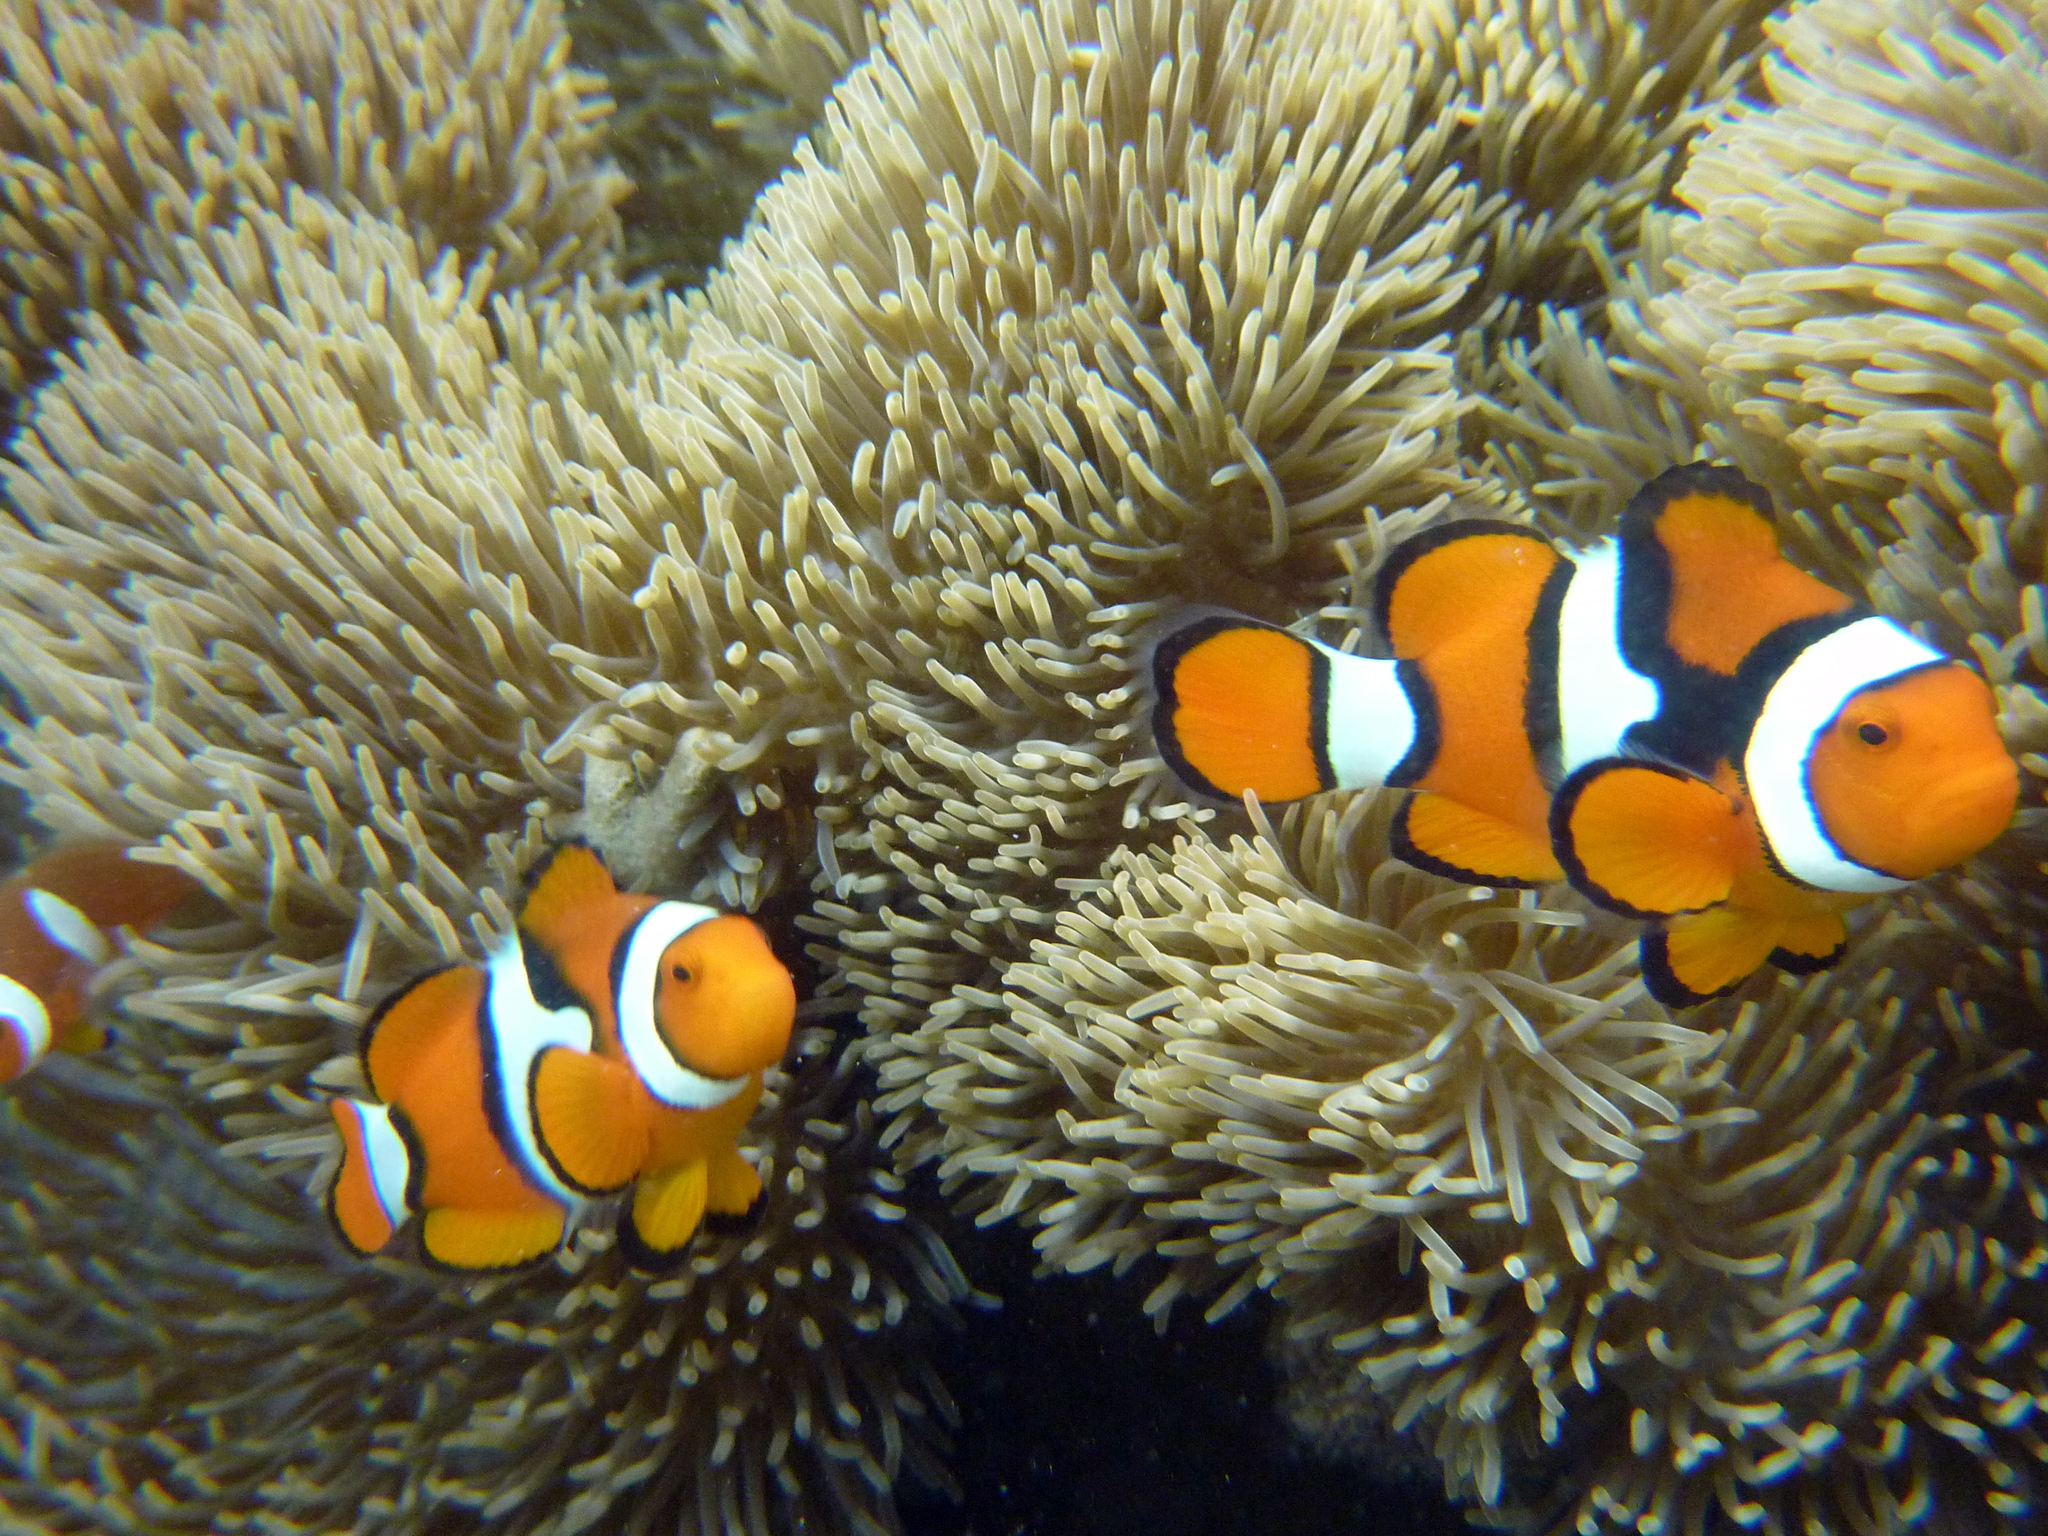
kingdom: Animalia
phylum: Chordata
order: Perciformes
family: Pomacentridae
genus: Amphiprion
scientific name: Amphiprion percula
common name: Clown anemonefish
